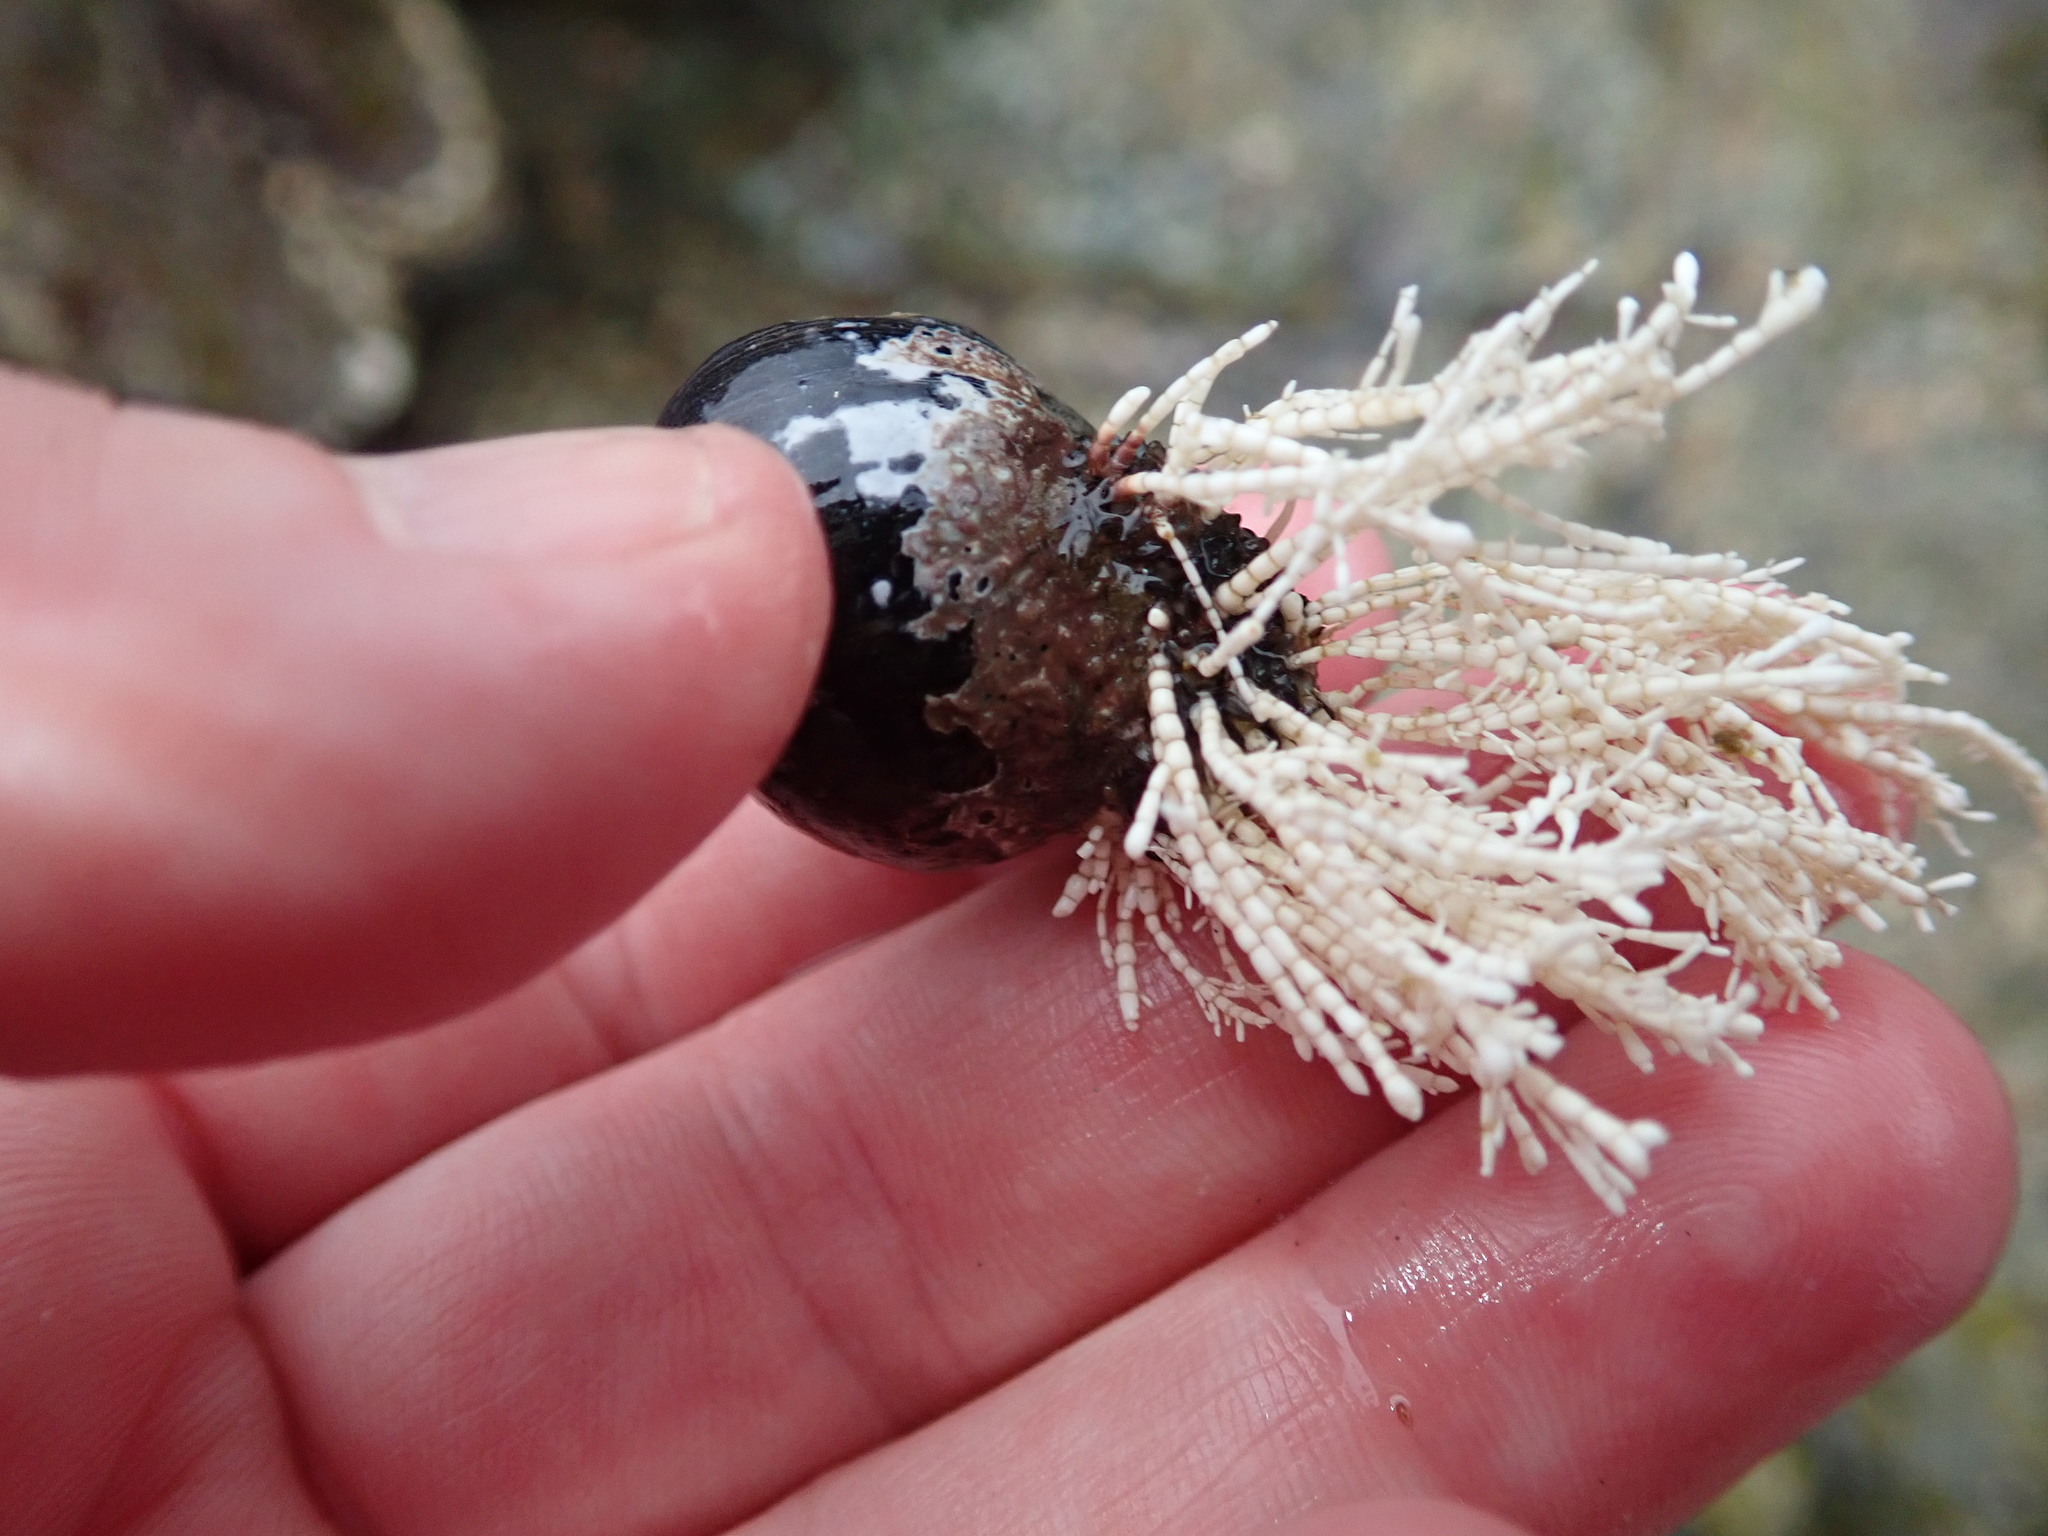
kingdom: Plantae
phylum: Rhodophyta
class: Florideophyceae
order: Corallinales
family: Corallinaceae
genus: Corallina
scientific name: Corallina officinalis
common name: Coral weed
